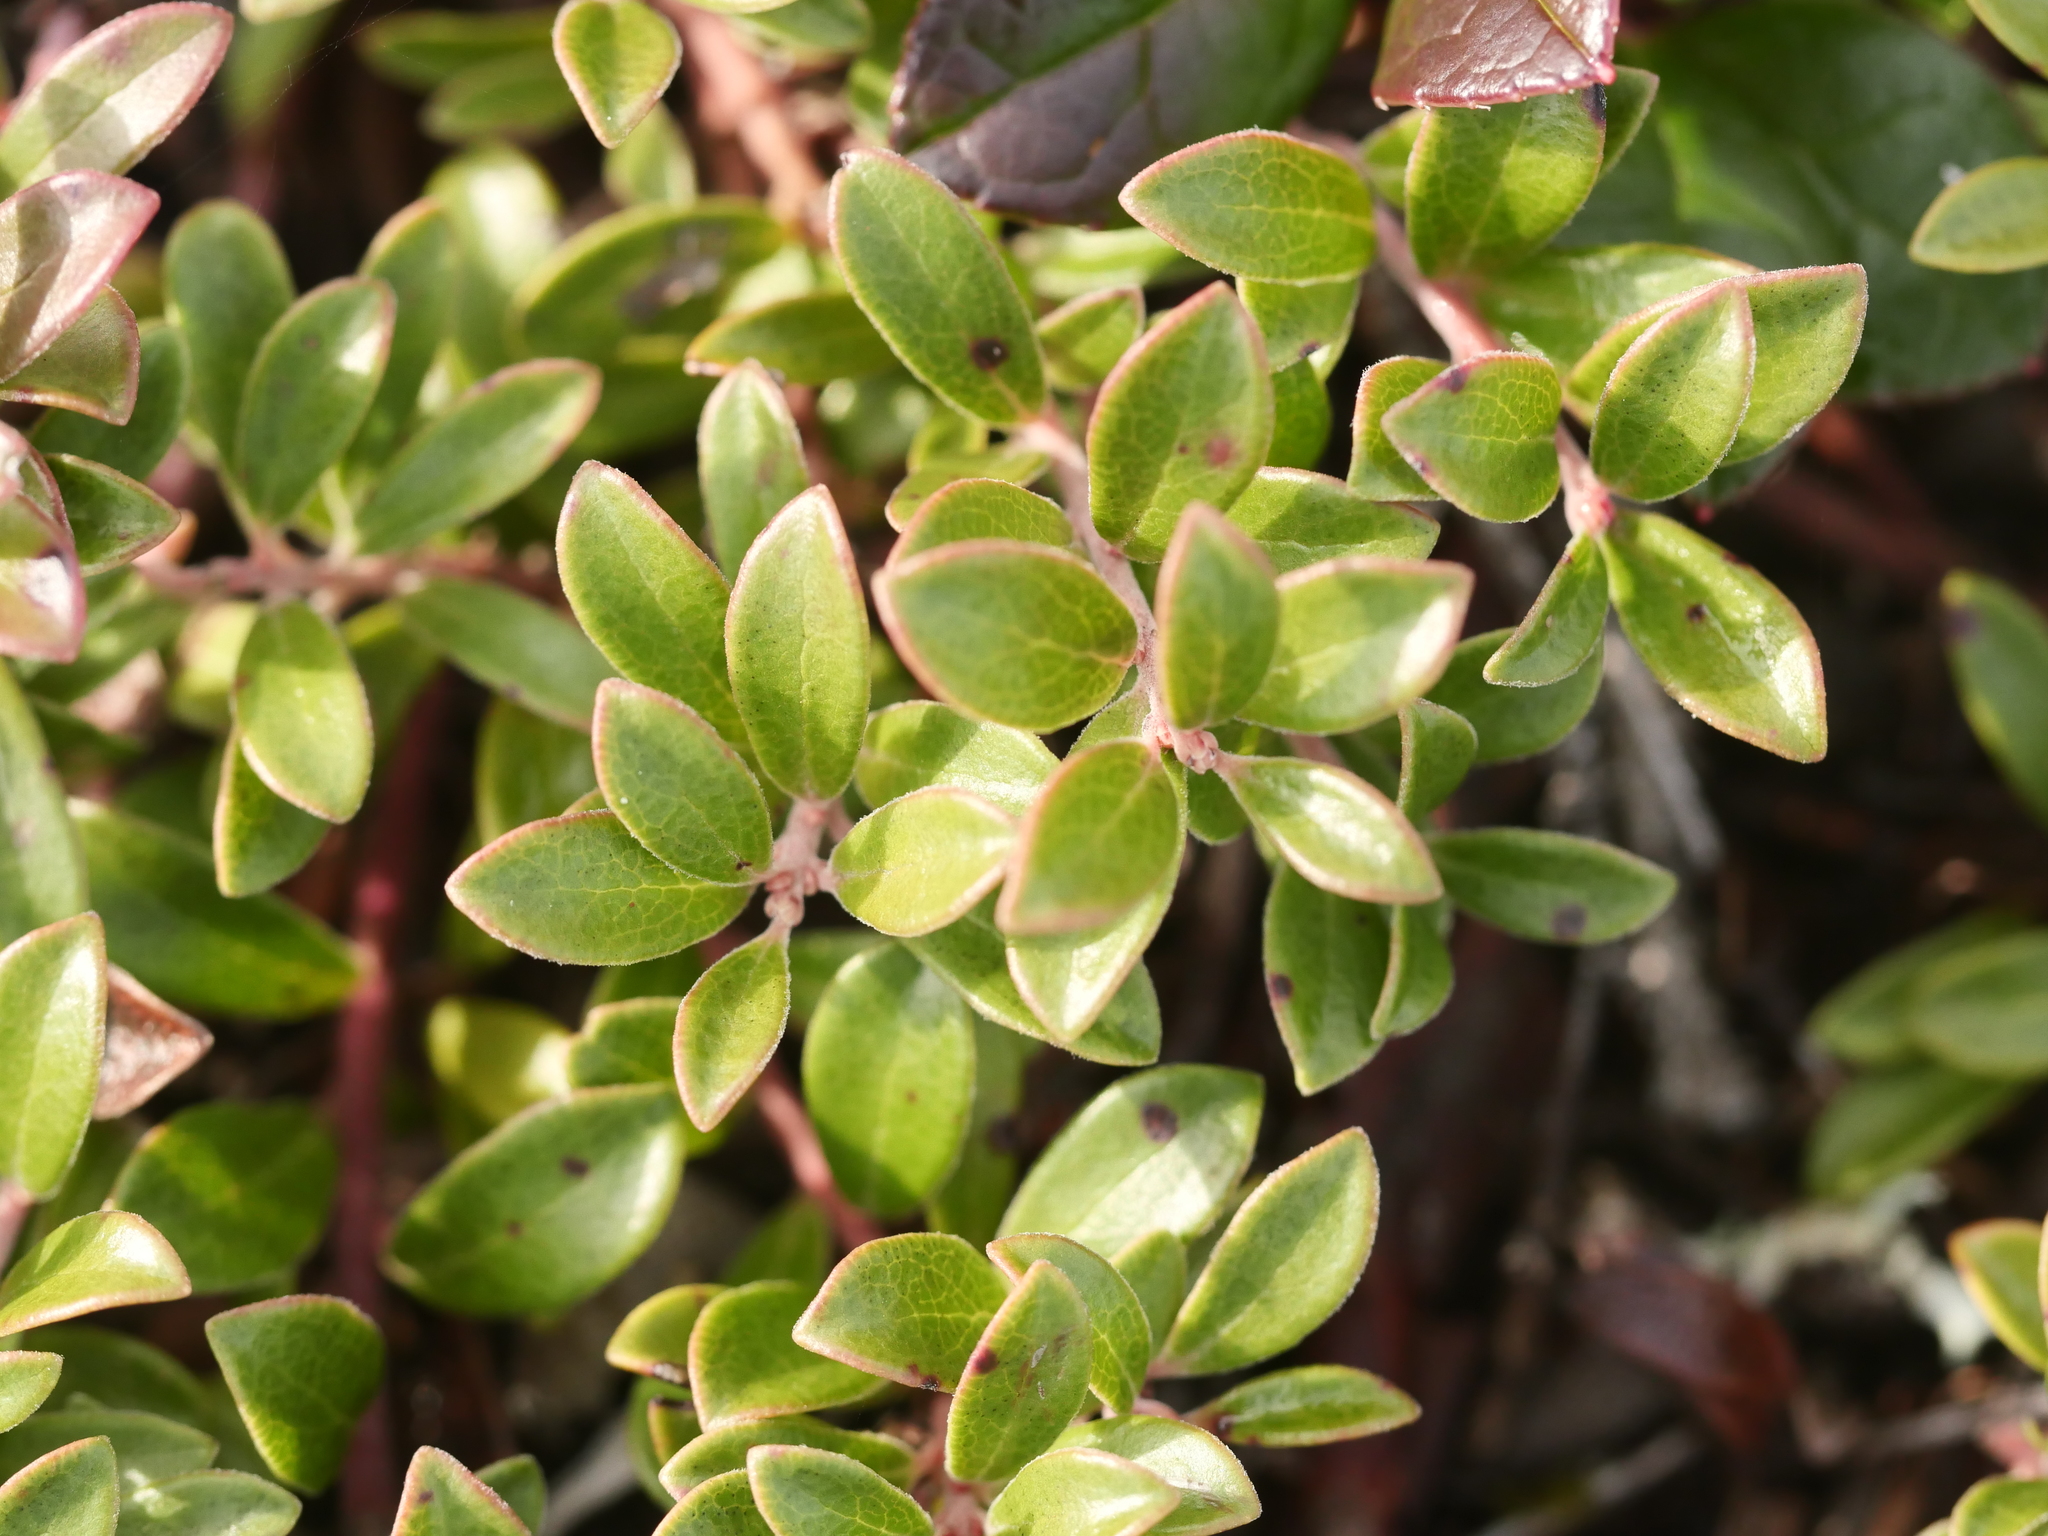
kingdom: Plantae
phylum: Tracheophyta
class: Magnoliopsida
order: Ericales
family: Ericaceae
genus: Arctostaphylos
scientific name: Arctostaphylos uva-ursi
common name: Bearberry
